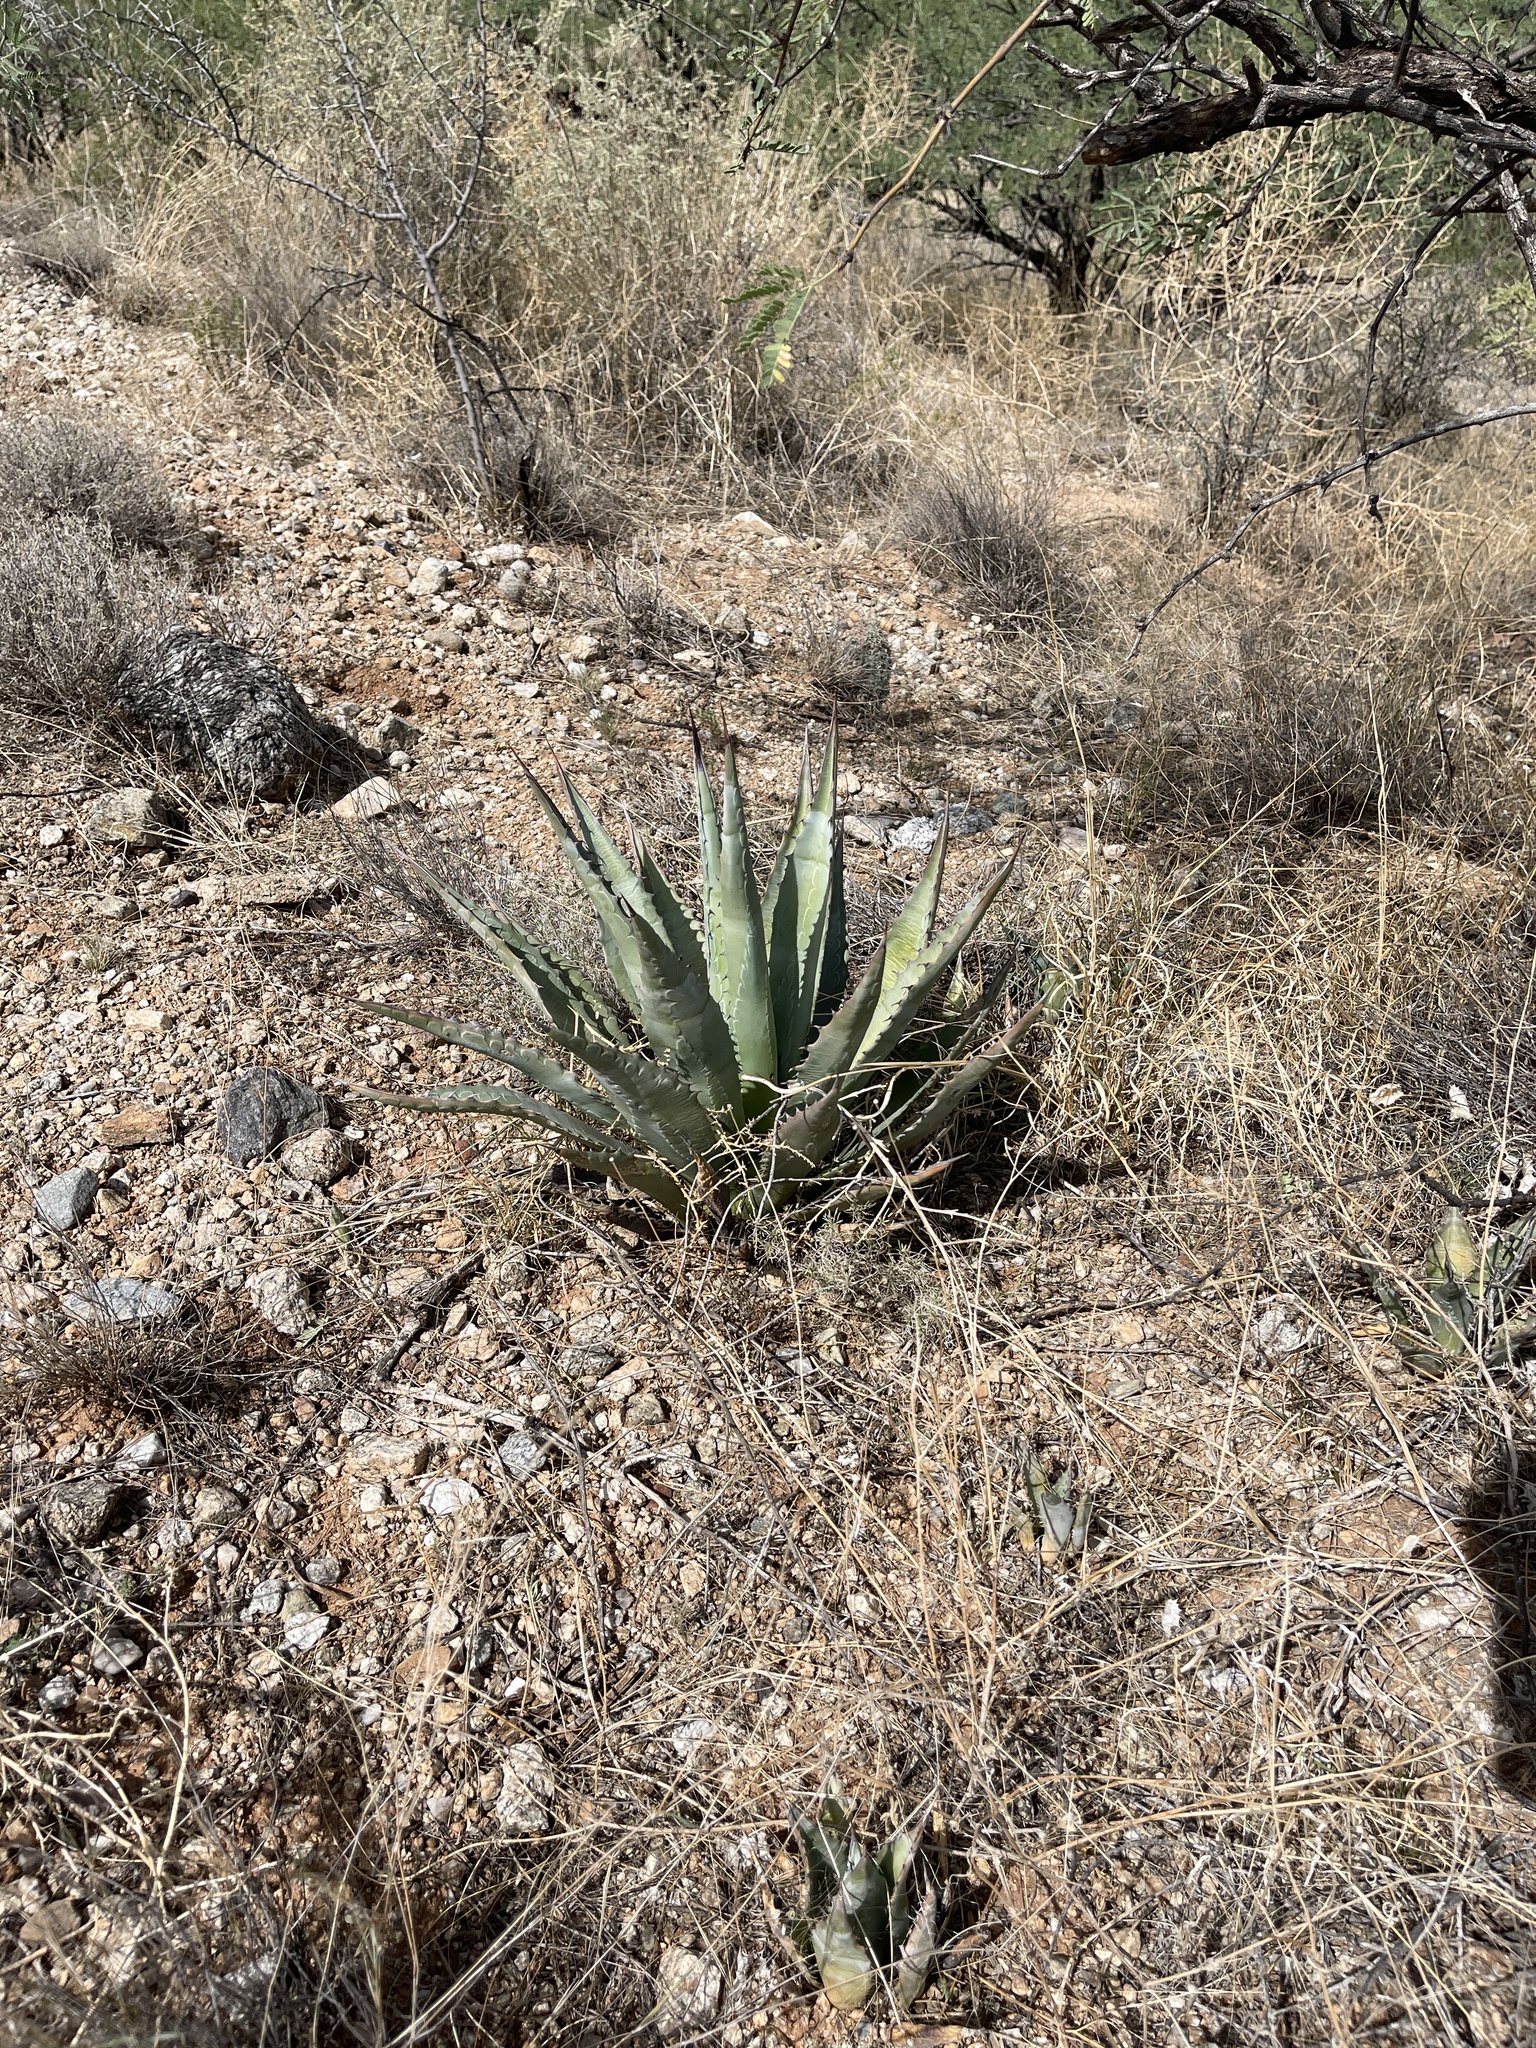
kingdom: Plantae
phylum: Tracheophyta
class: Liliopsida
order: Asparagales
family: Asparagaceae
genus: Agave
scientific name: Agave palmeri
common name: Palmer agave
